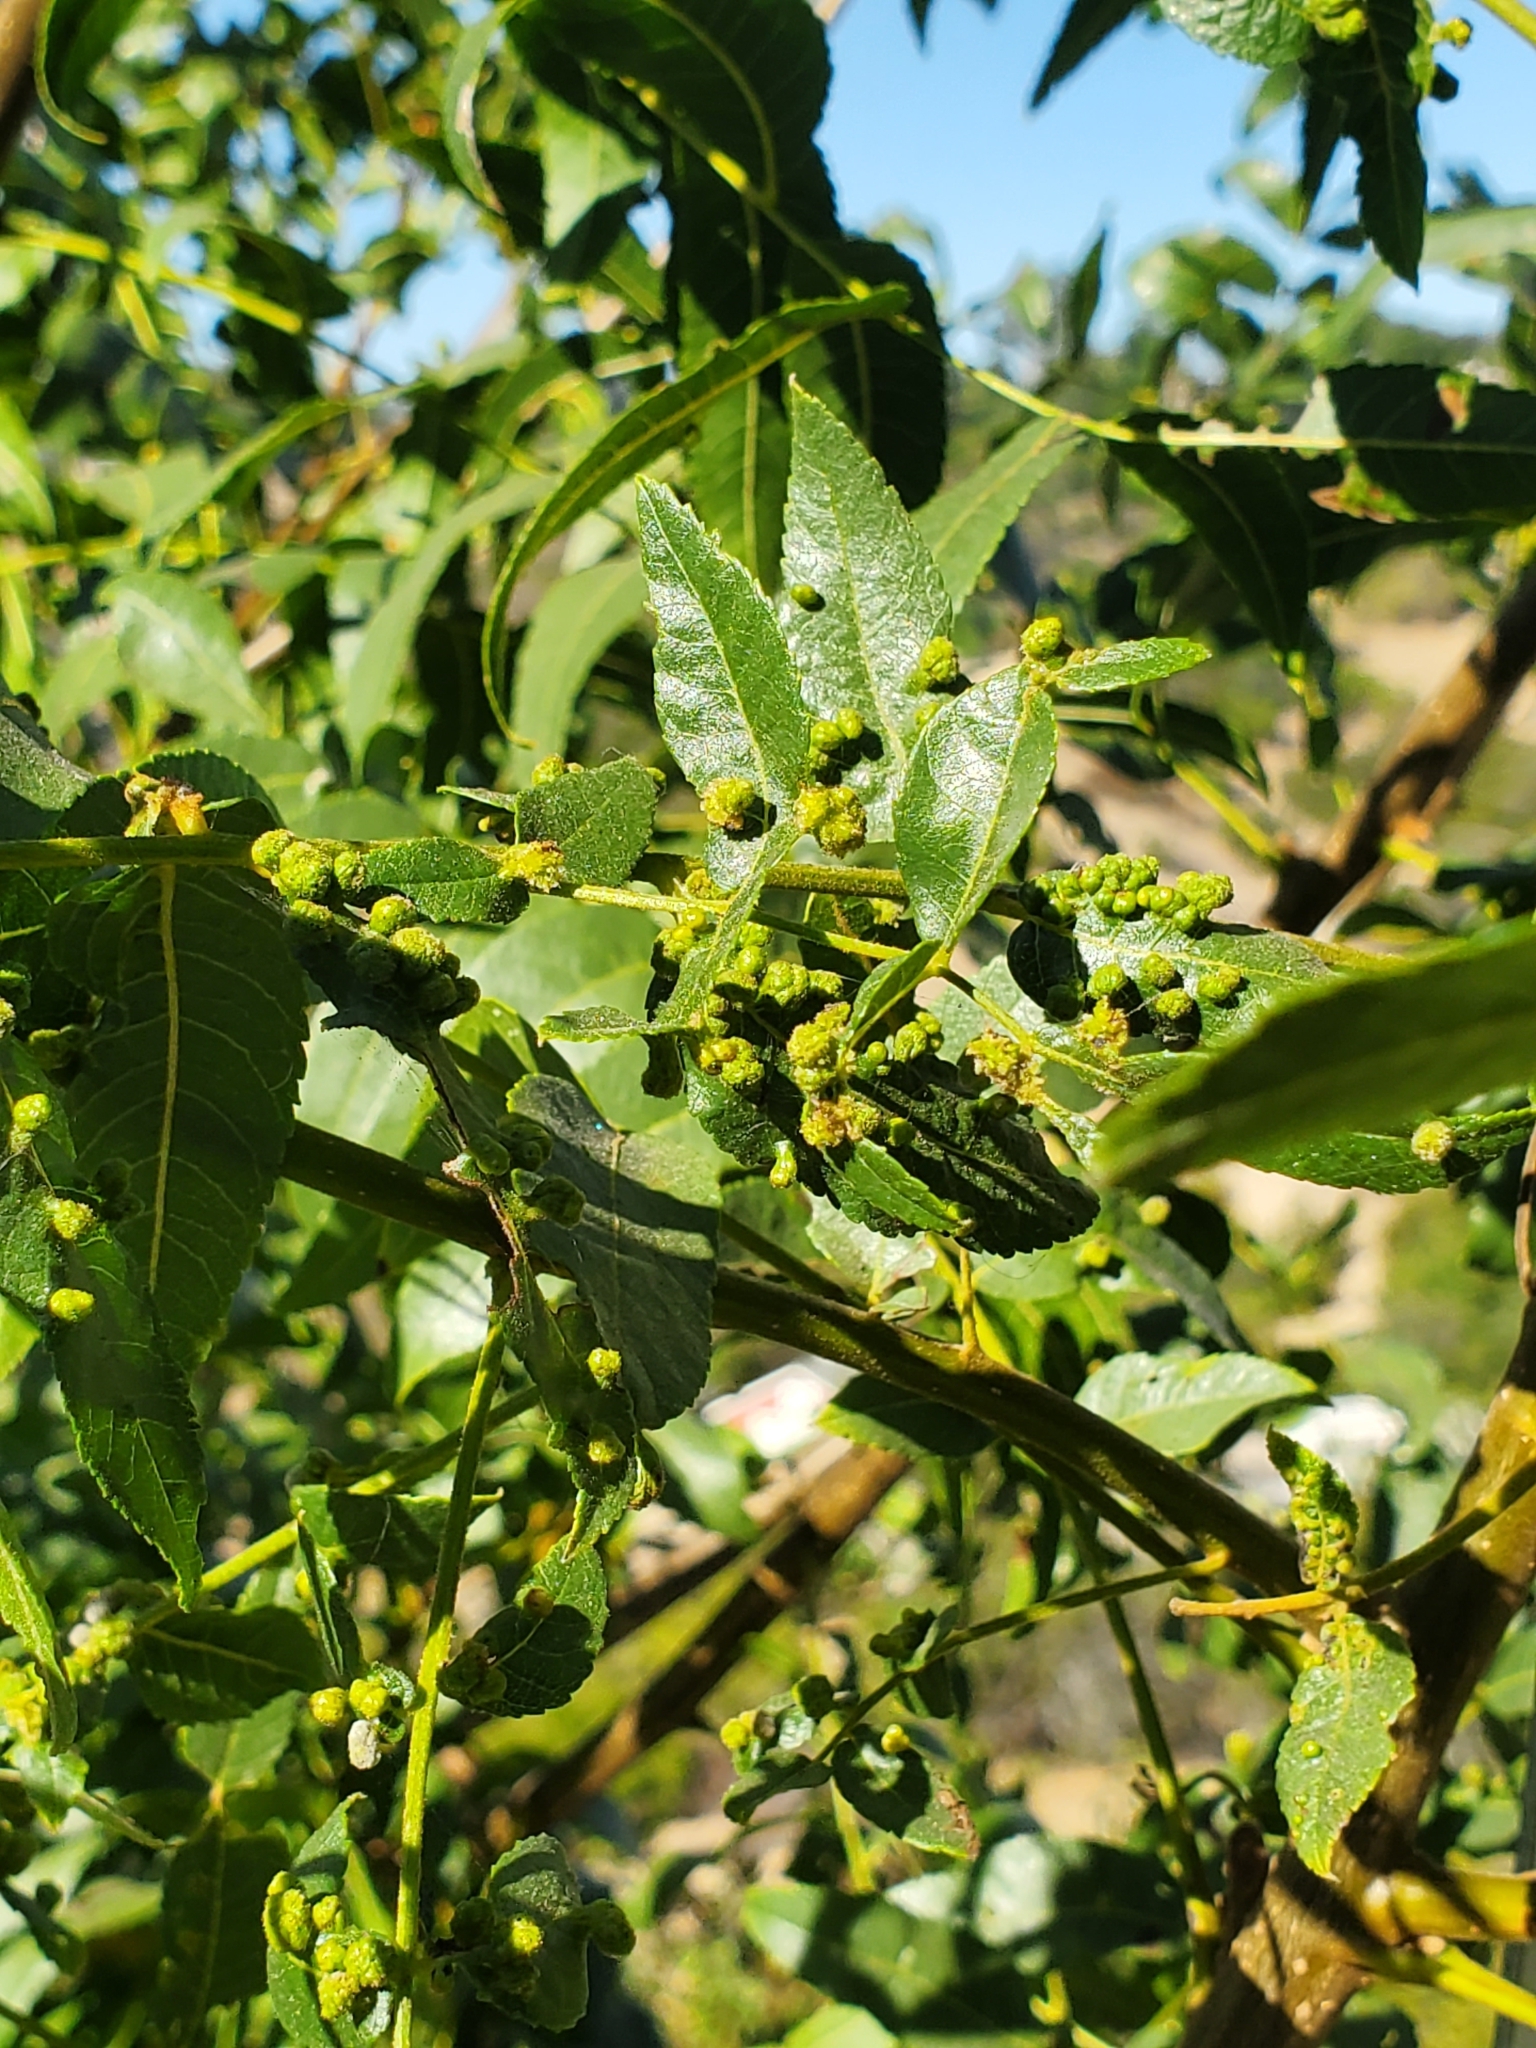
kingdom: Plantae
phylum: Tracheophyta
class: Magnoliopsida
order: Fagales
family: Juglandaceae
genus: Juglans
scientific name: Juglans californica
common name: Southern california black walnut
